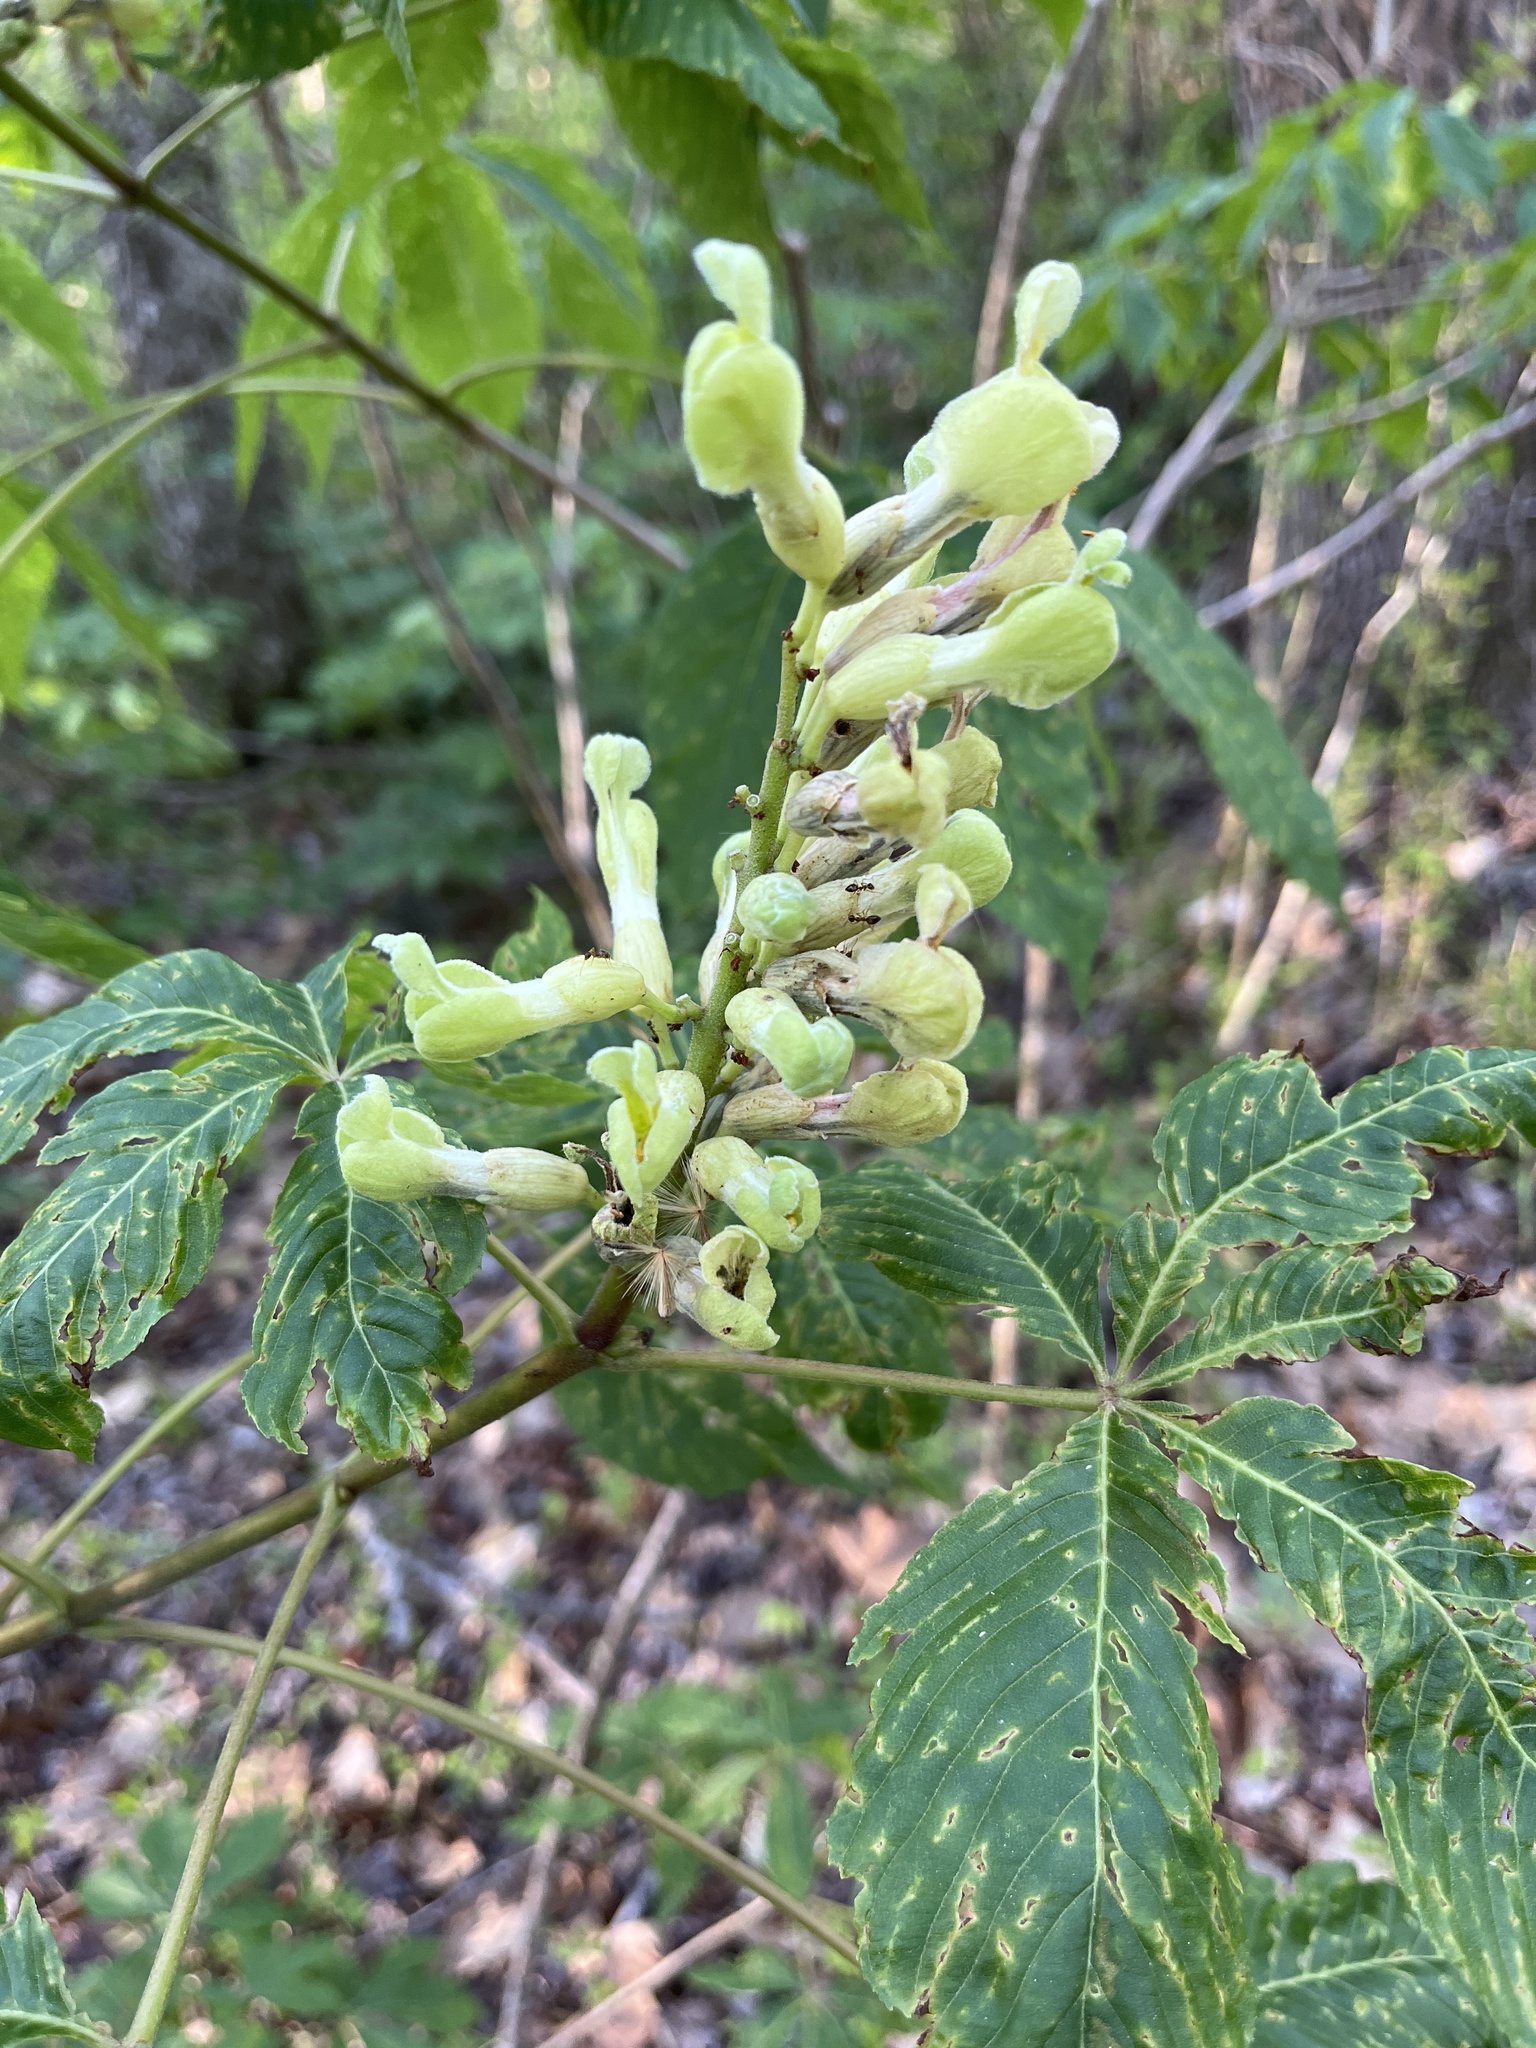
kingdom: Plantae
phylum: Tracheophyta
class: Magnoliopsida
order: Sapindales
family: Sapindaceae
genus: Aesculus
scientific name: Aesculus sylvatica
